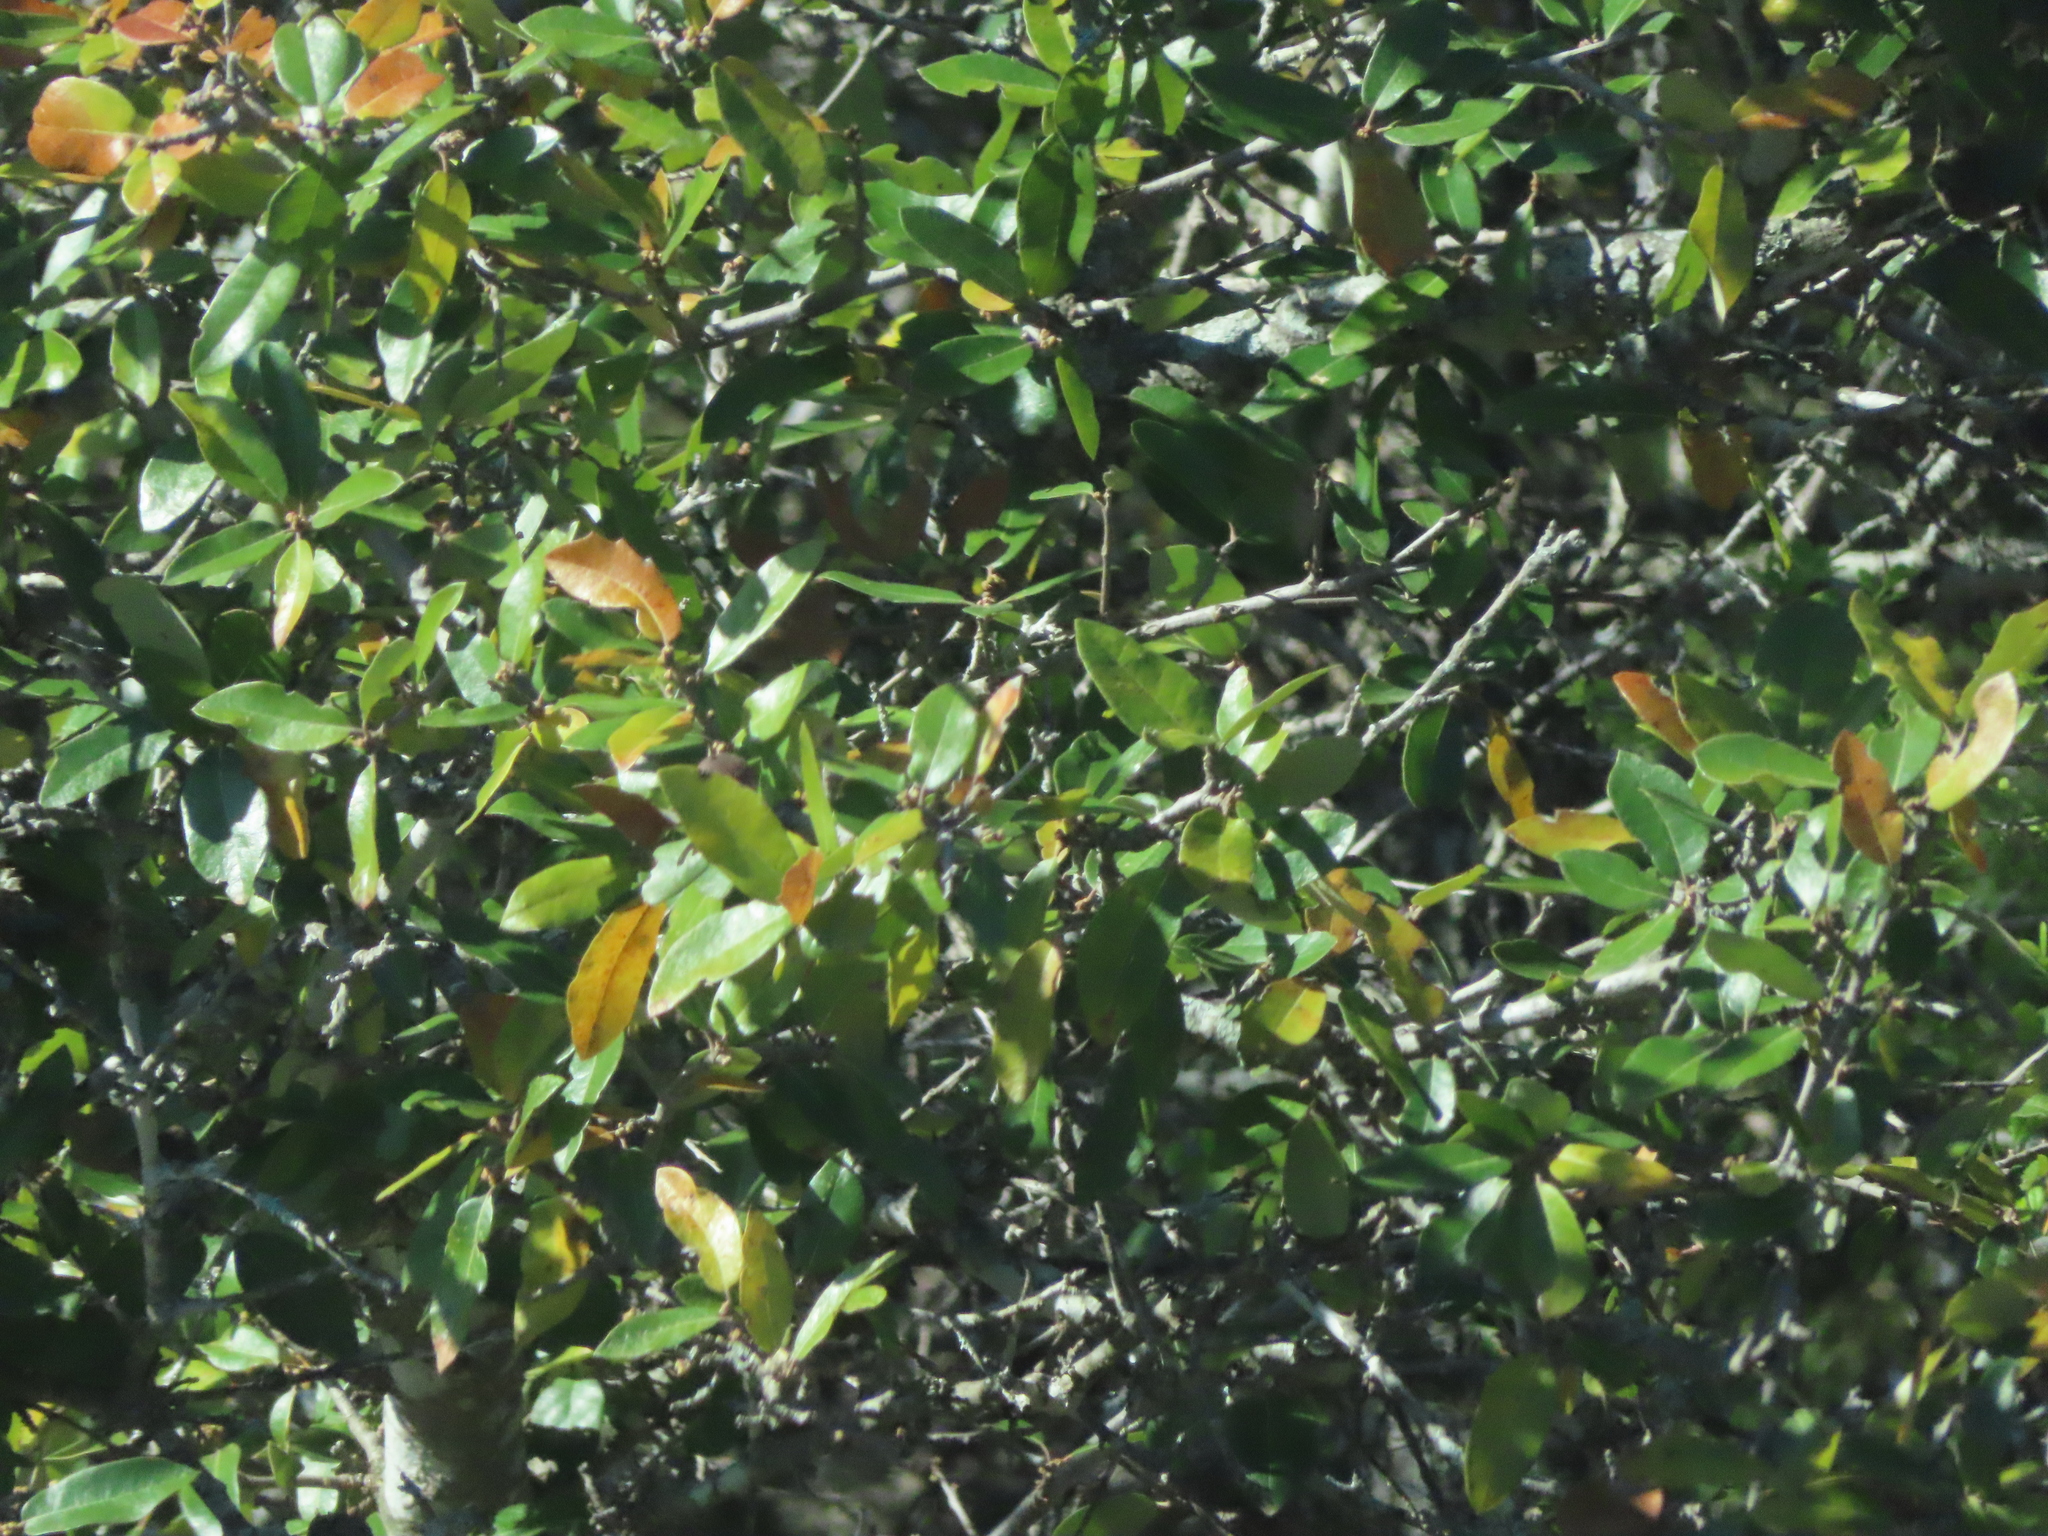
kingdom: Plantae
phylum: Tracheophyta
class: Magnoliopsida
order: Fagales
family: Fagaceae
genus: Quercus
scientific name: Quercus fusiformis
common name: Texas live oak
